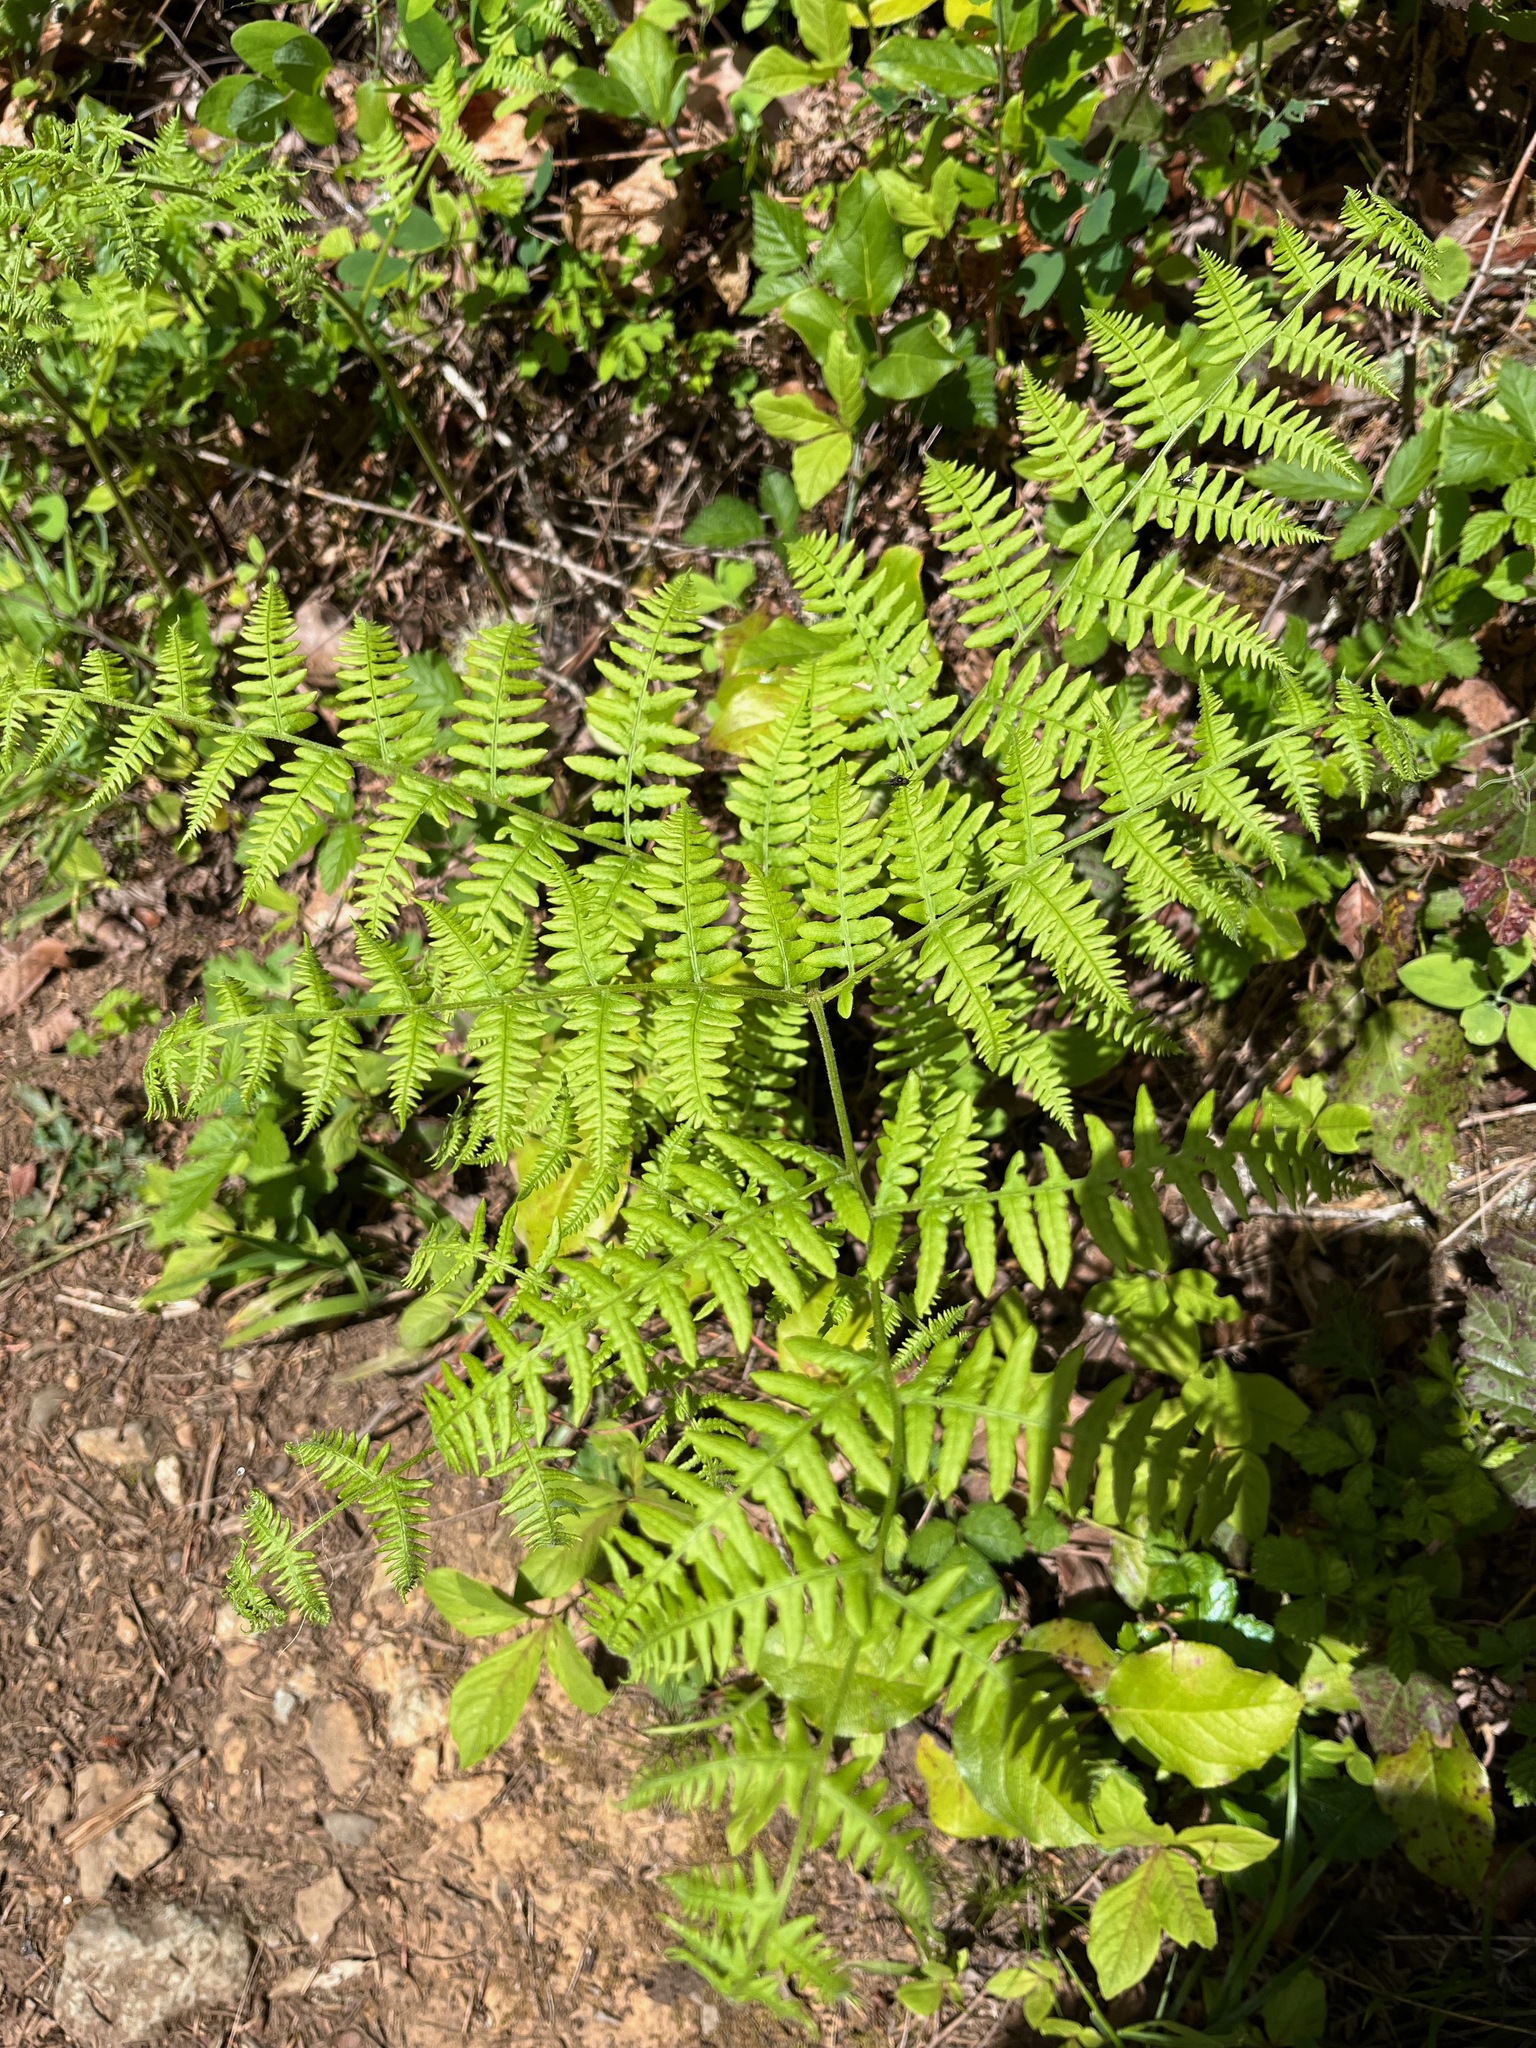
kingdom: Plantae
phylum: Tracheophyta
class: Polypodiopsida
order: Polypodiales
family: Dennstaedtiaceae
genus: Pteridium
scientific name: Pteridium aquilinum
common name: Bracken
